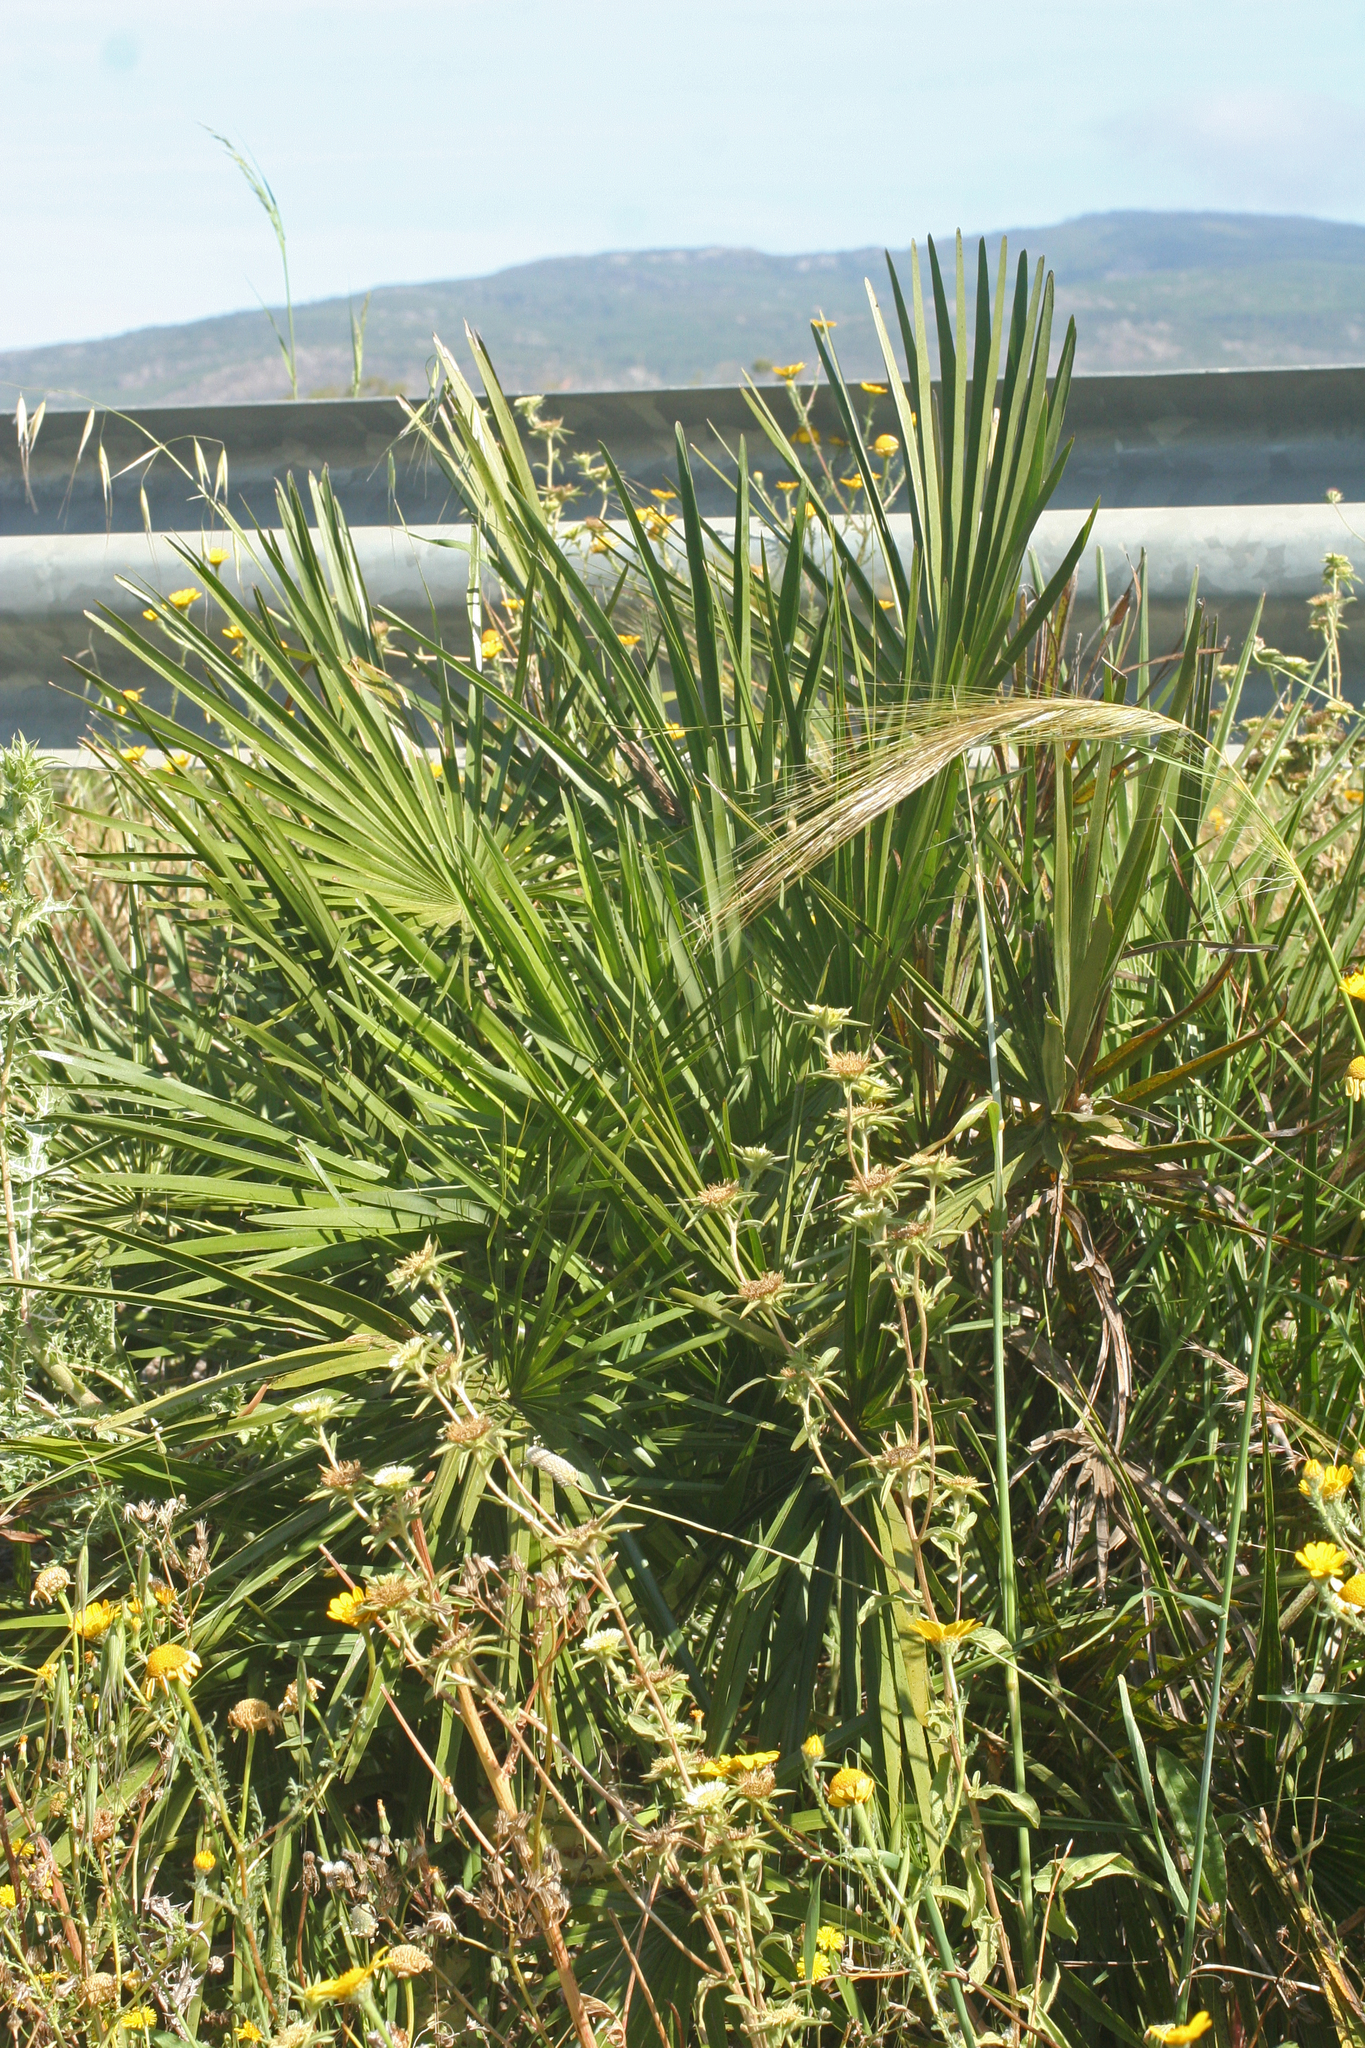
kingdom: Plantae
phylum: Tracheophyta
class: Liliopsida
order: Arecales
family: Arecaceae
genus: Chamaerops
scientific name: Chamaerops humilis
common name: Dwarf fan palm
